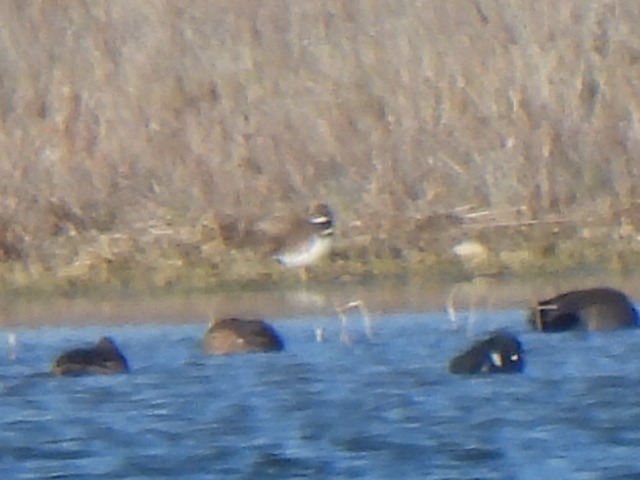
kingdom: Animalia
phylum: Chordata
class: Aves
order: Charadriiformes
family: Charadriidae
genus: Charadrius
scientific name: Charadrius vociferus
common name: Killdeer
